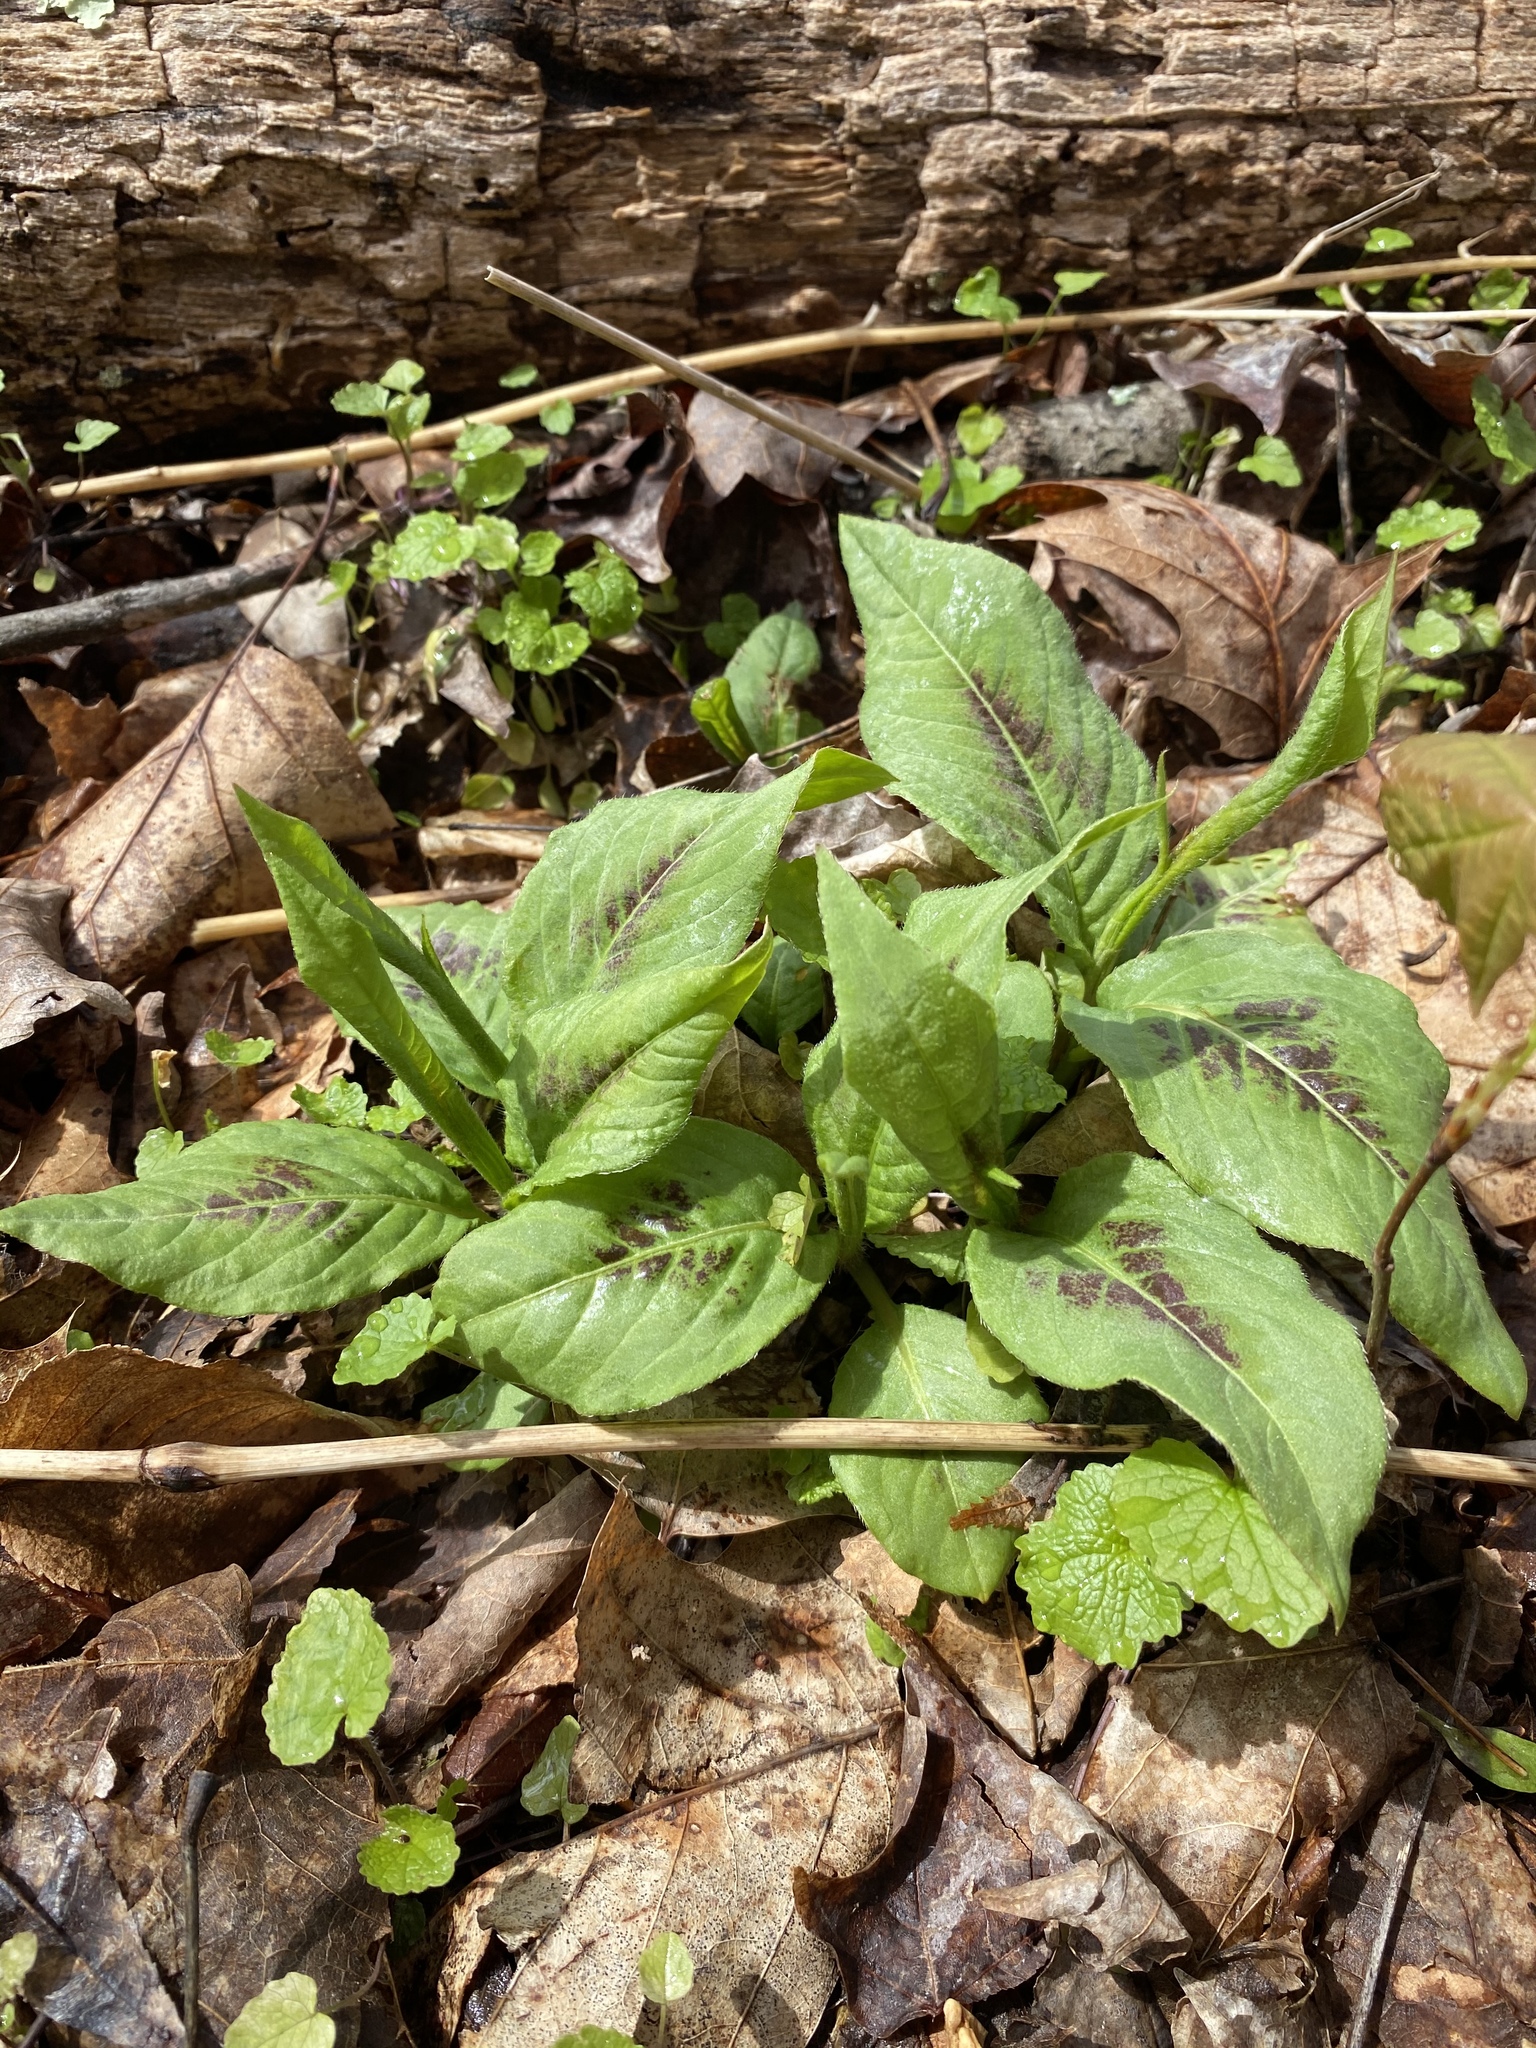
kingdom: Plantae
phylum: Tracheophyta
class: Magnoliopsida
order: Caryophyllales
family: Polygonaceae
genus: Persicaria
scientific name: Persicaria virginiana
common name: Jumpseed
